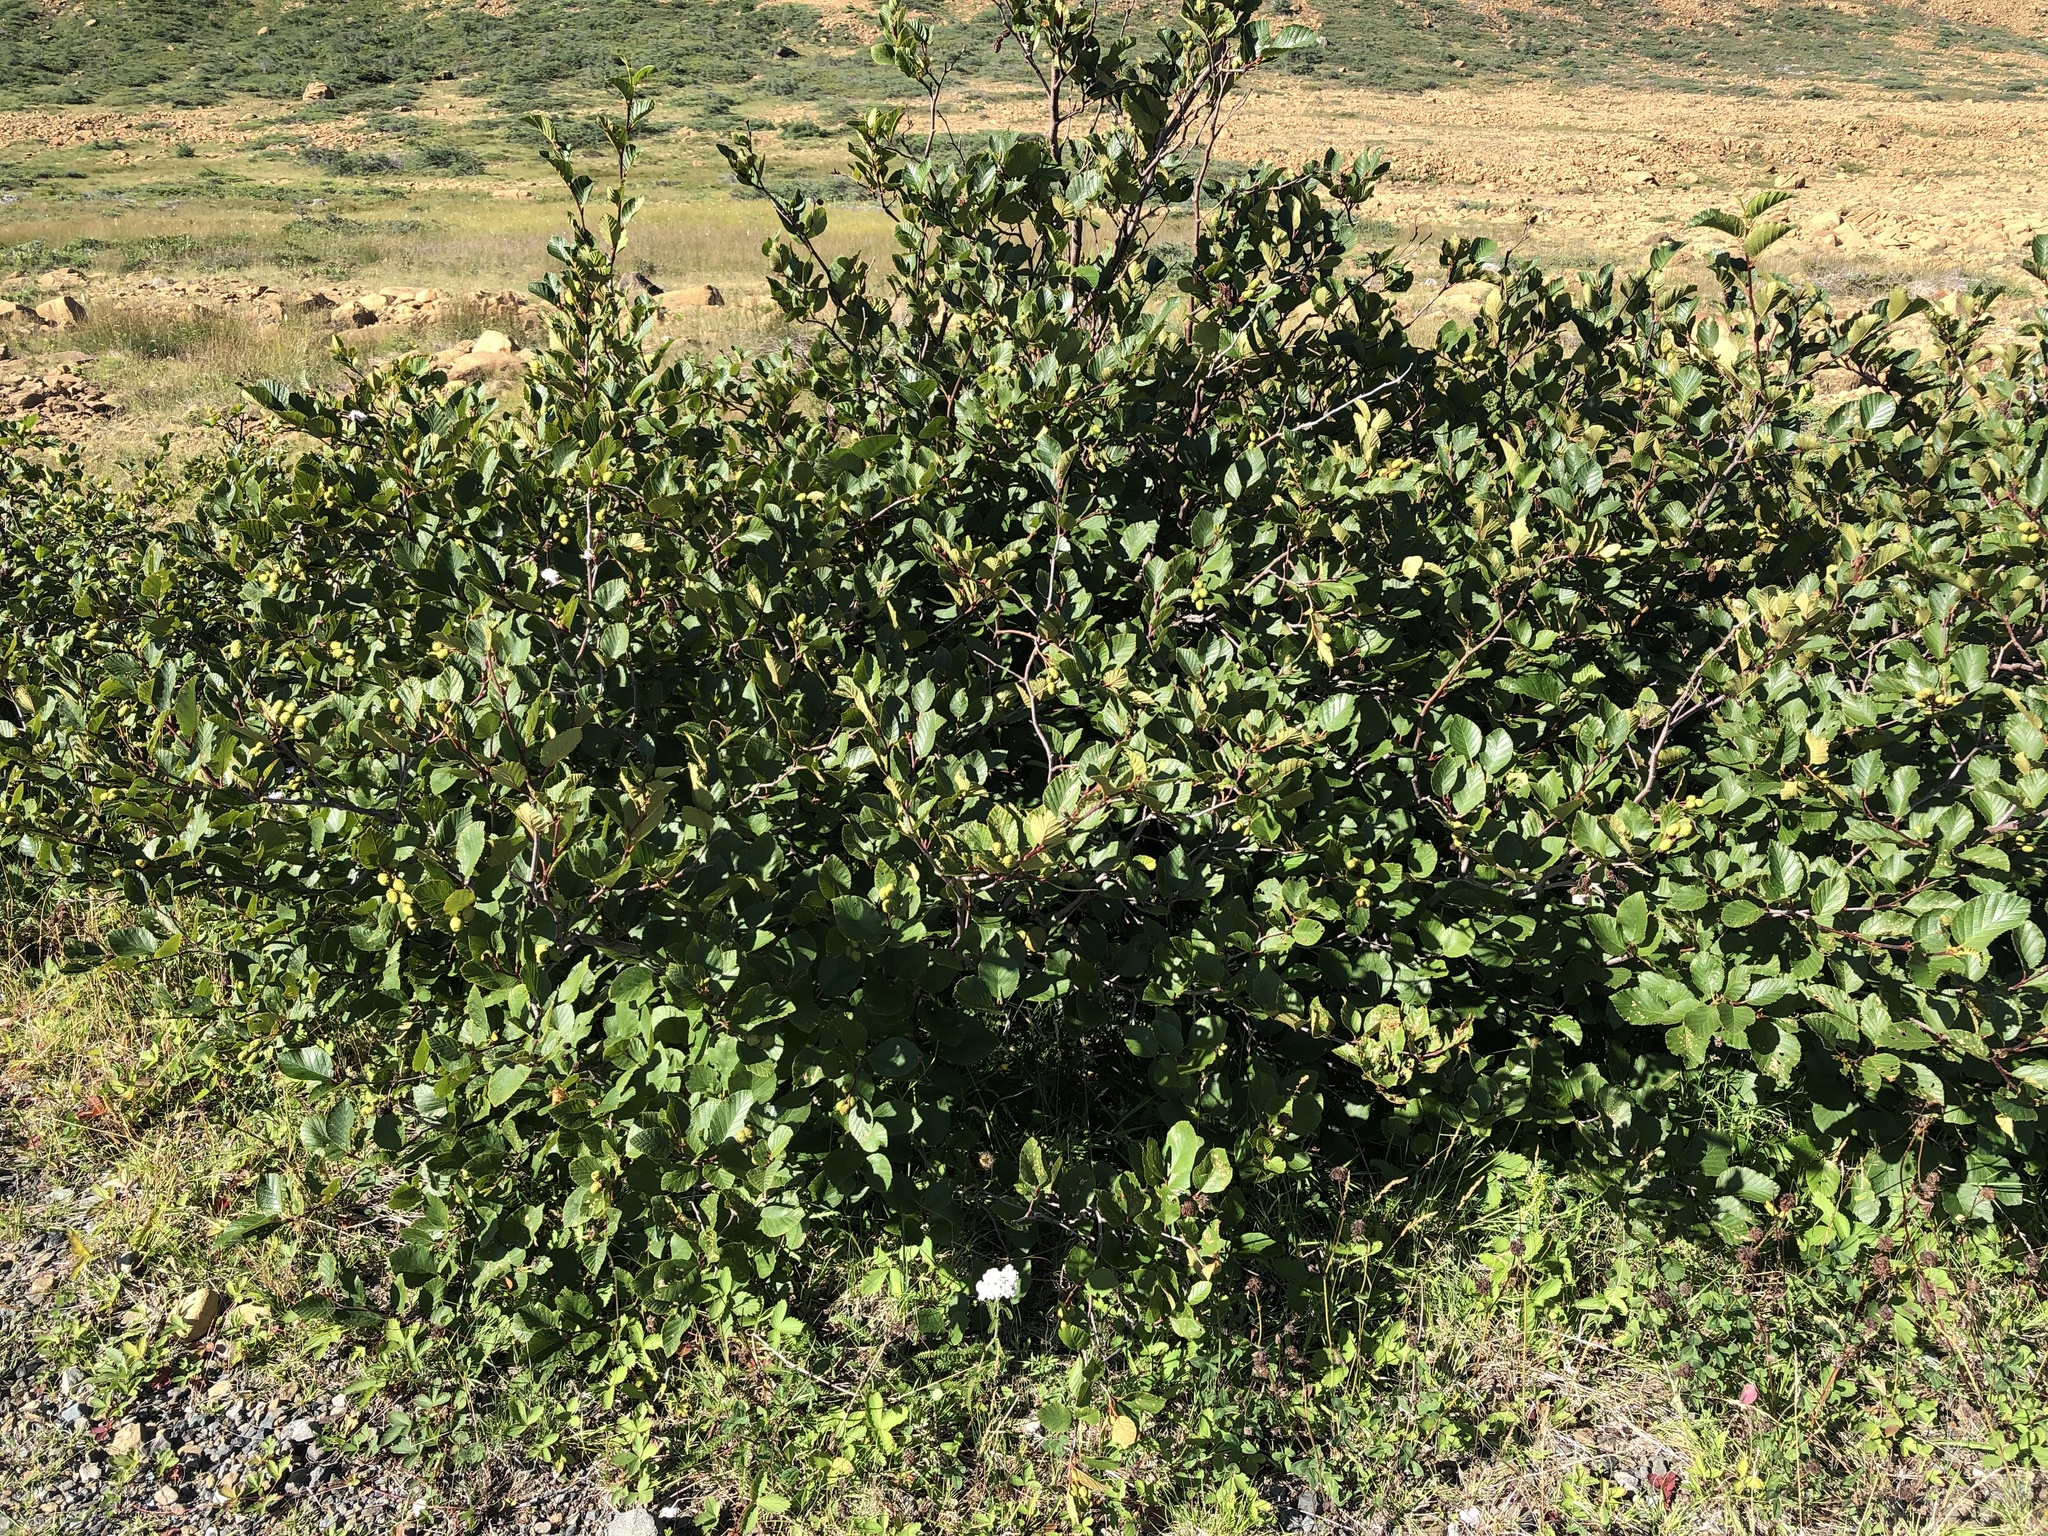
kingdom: Plantae
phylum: Tracheophyta
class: Magnoliopsida
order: Fagales
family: Betulaceae
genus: Alnus
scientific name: Alnus alnobetula
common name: Green alder
